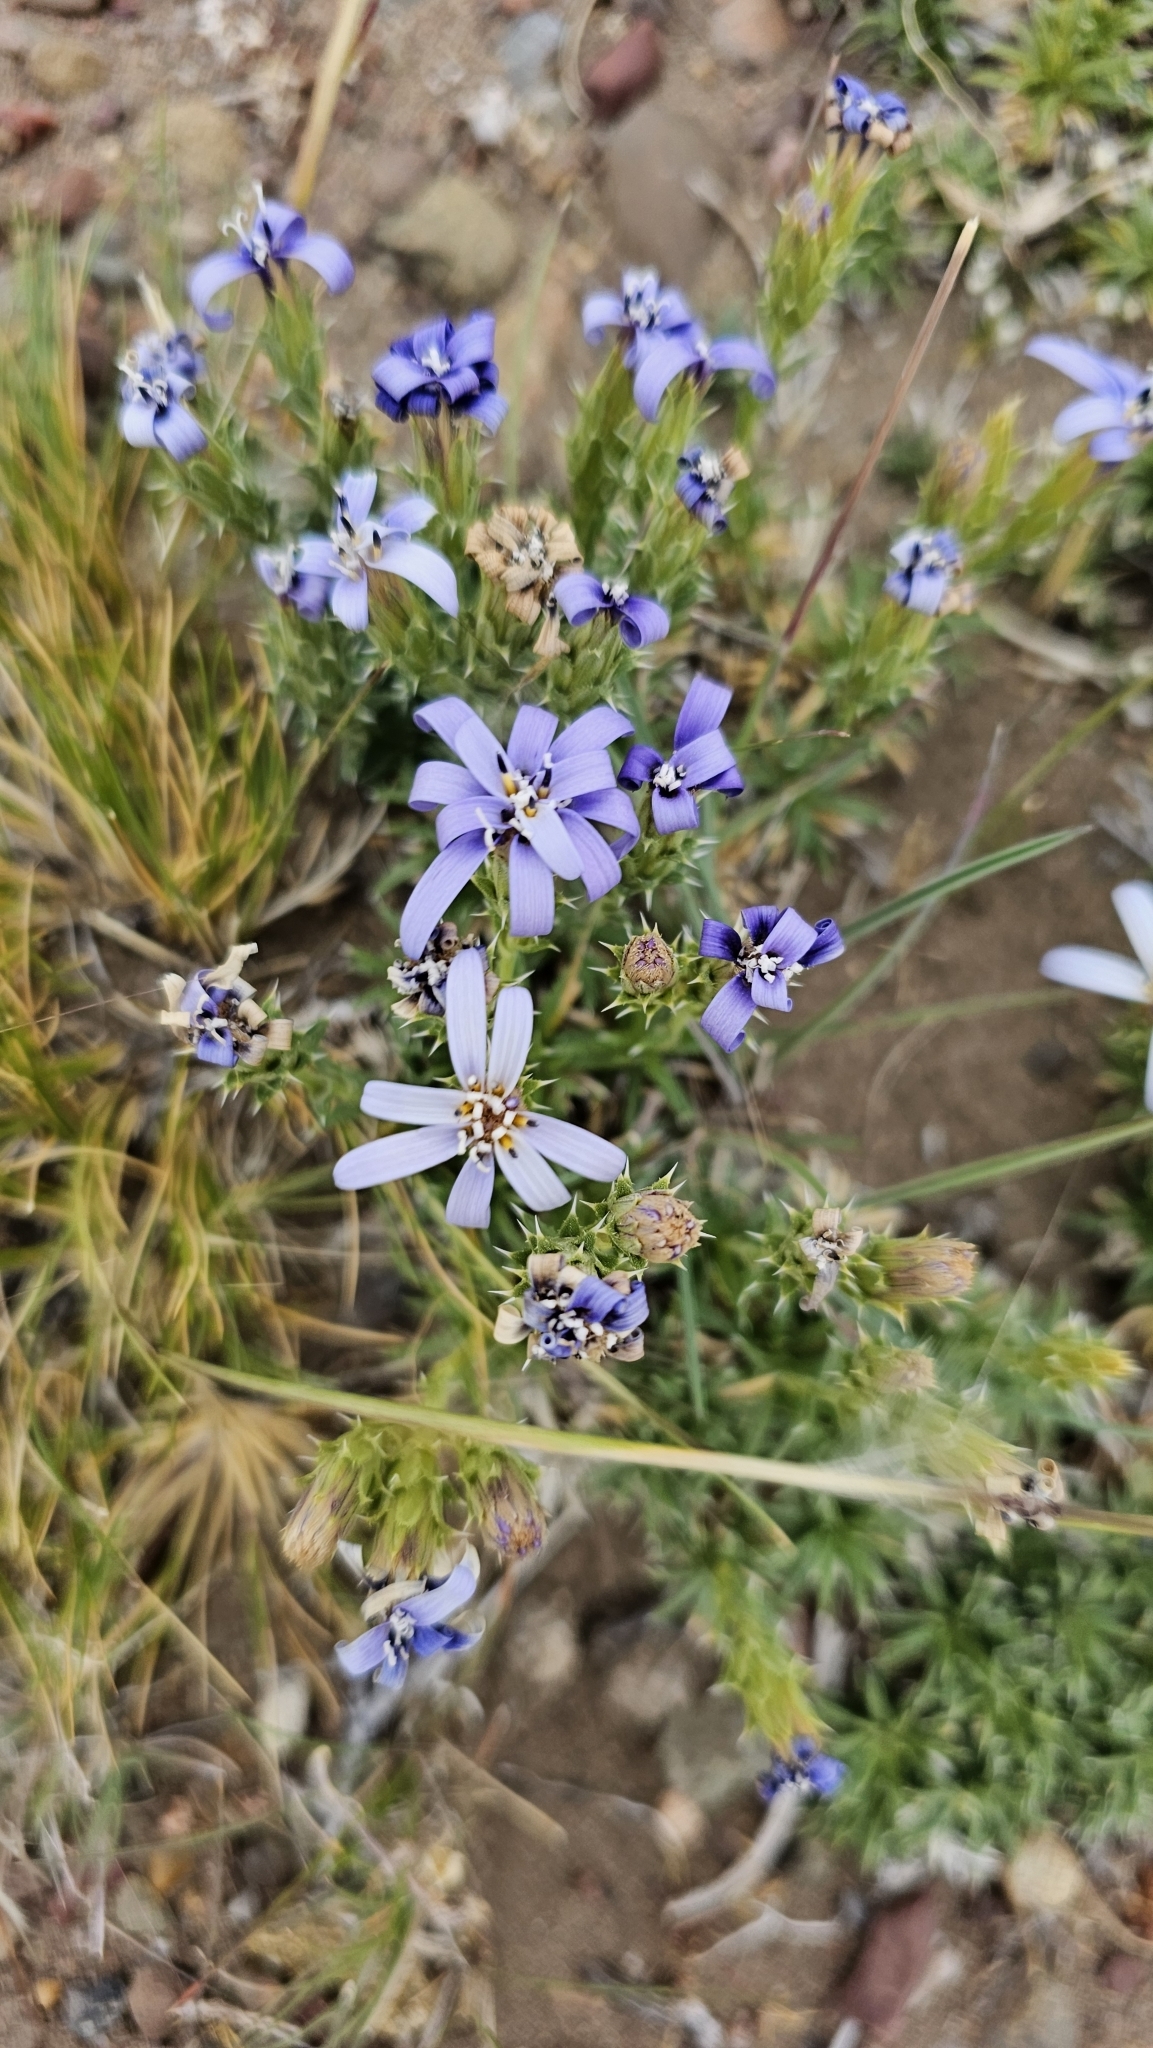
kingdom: Plantae
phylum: Tracheophyta
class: Magnoliopsida
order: Asterales
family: Asteraceae
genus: Perezia
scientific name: Perezia recurvata
